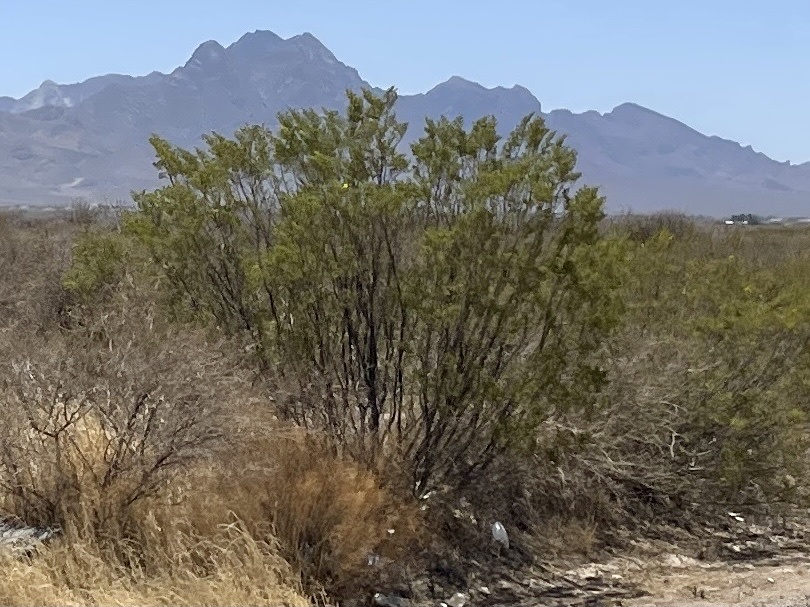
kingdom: Plantae
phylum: Tracheophyta
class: Magnoliopsida
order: Zygophyllales
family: Zygophyllaceae
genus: Larrea
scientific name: Larrea tridentata
